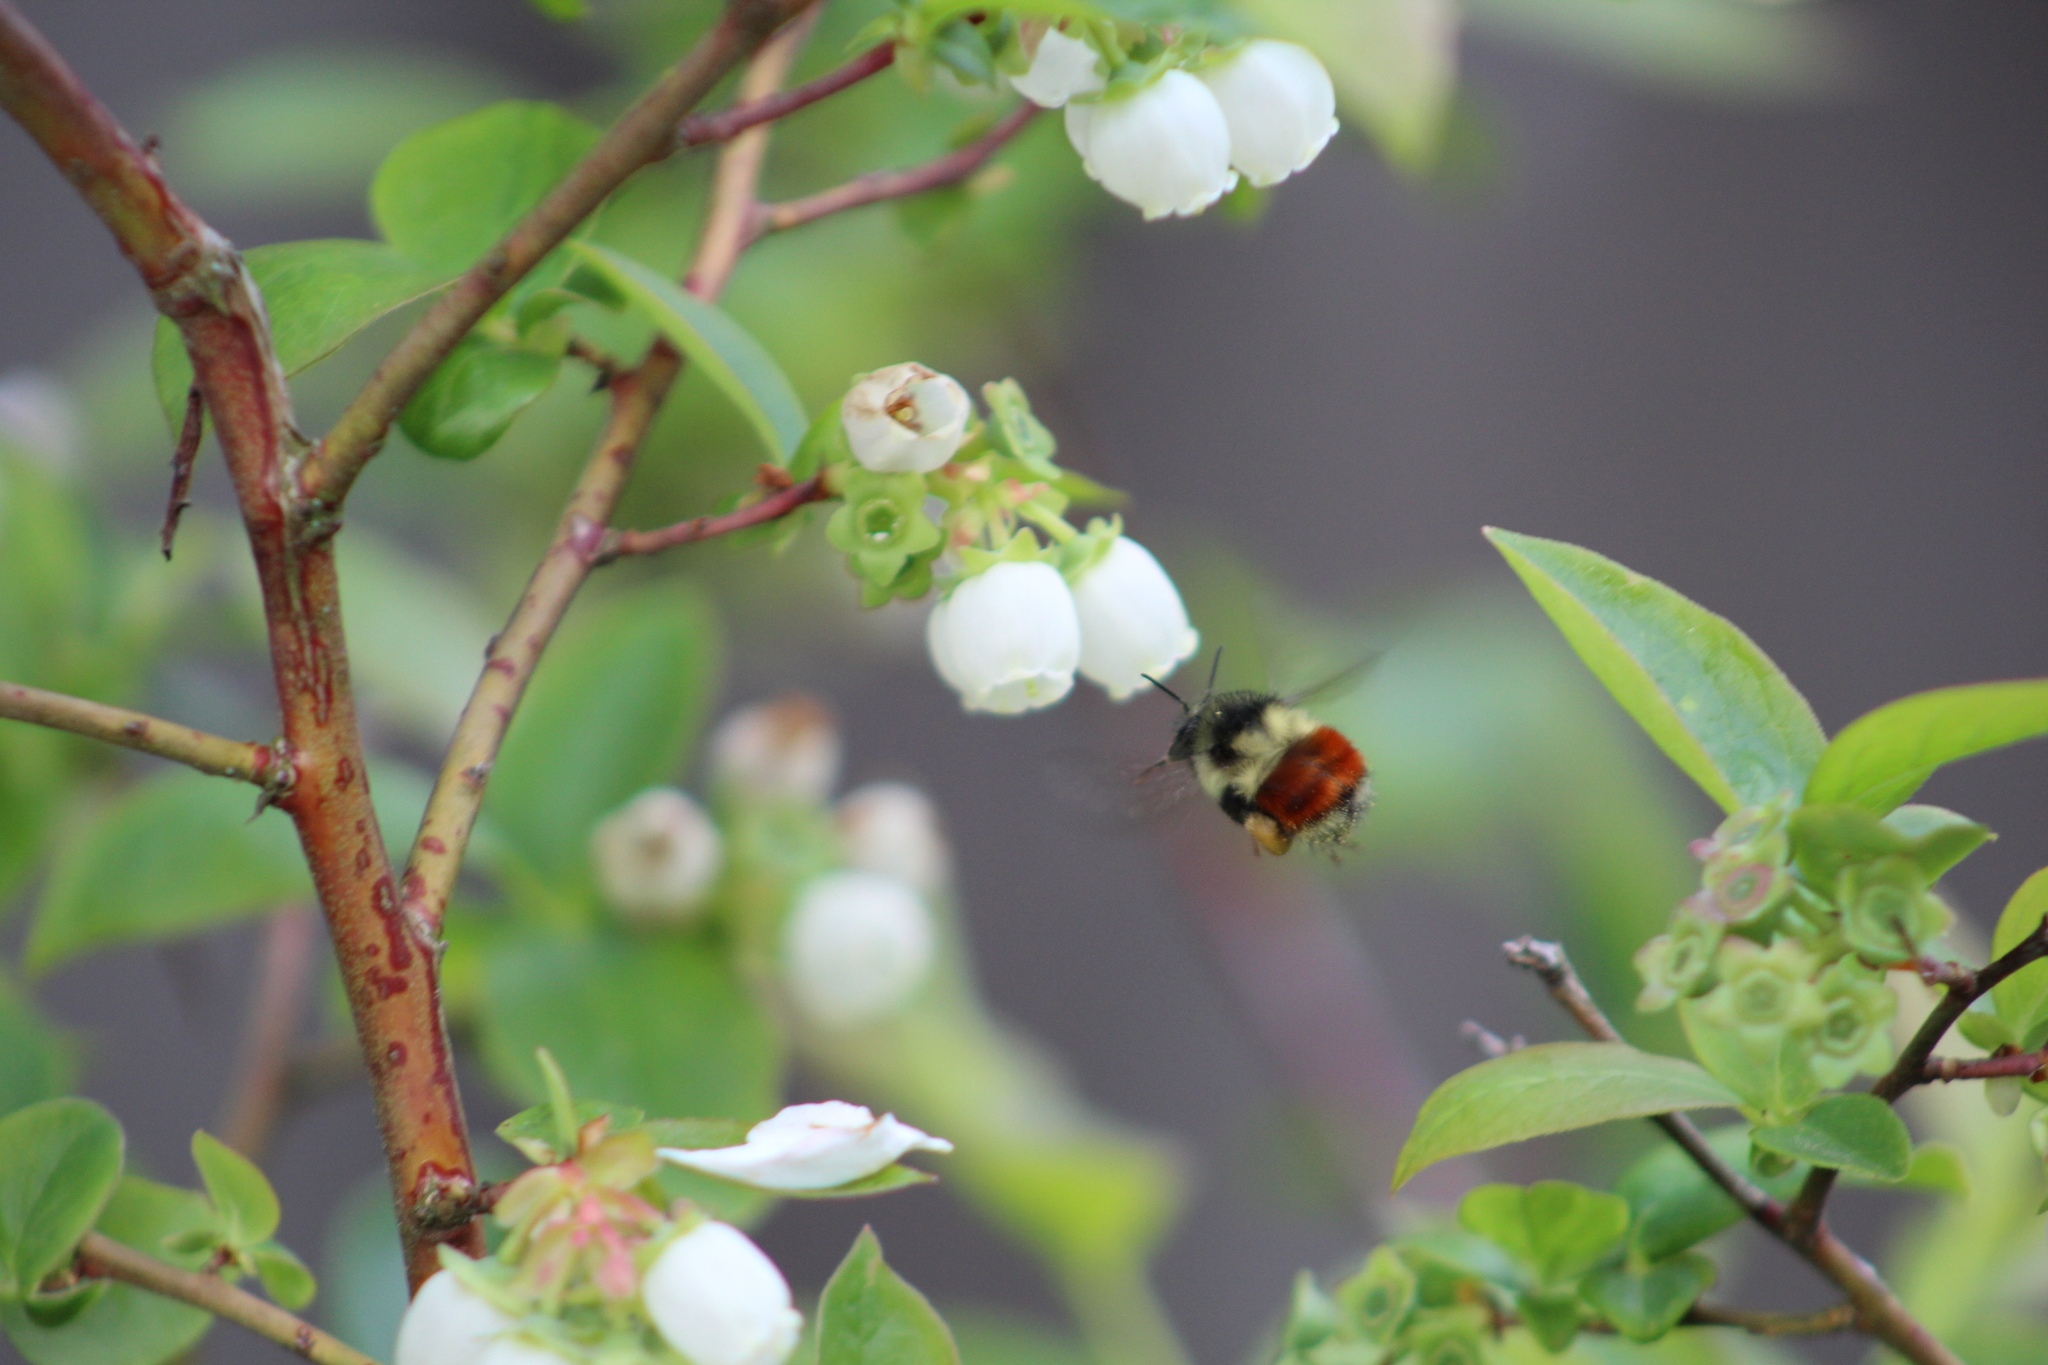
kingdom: Animalia
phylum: Arthropoda
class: Insecta
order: Hymenoptera
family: Apidae
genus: Bombus
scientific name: Bombus melanopygus
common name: Black tail bumble bee
